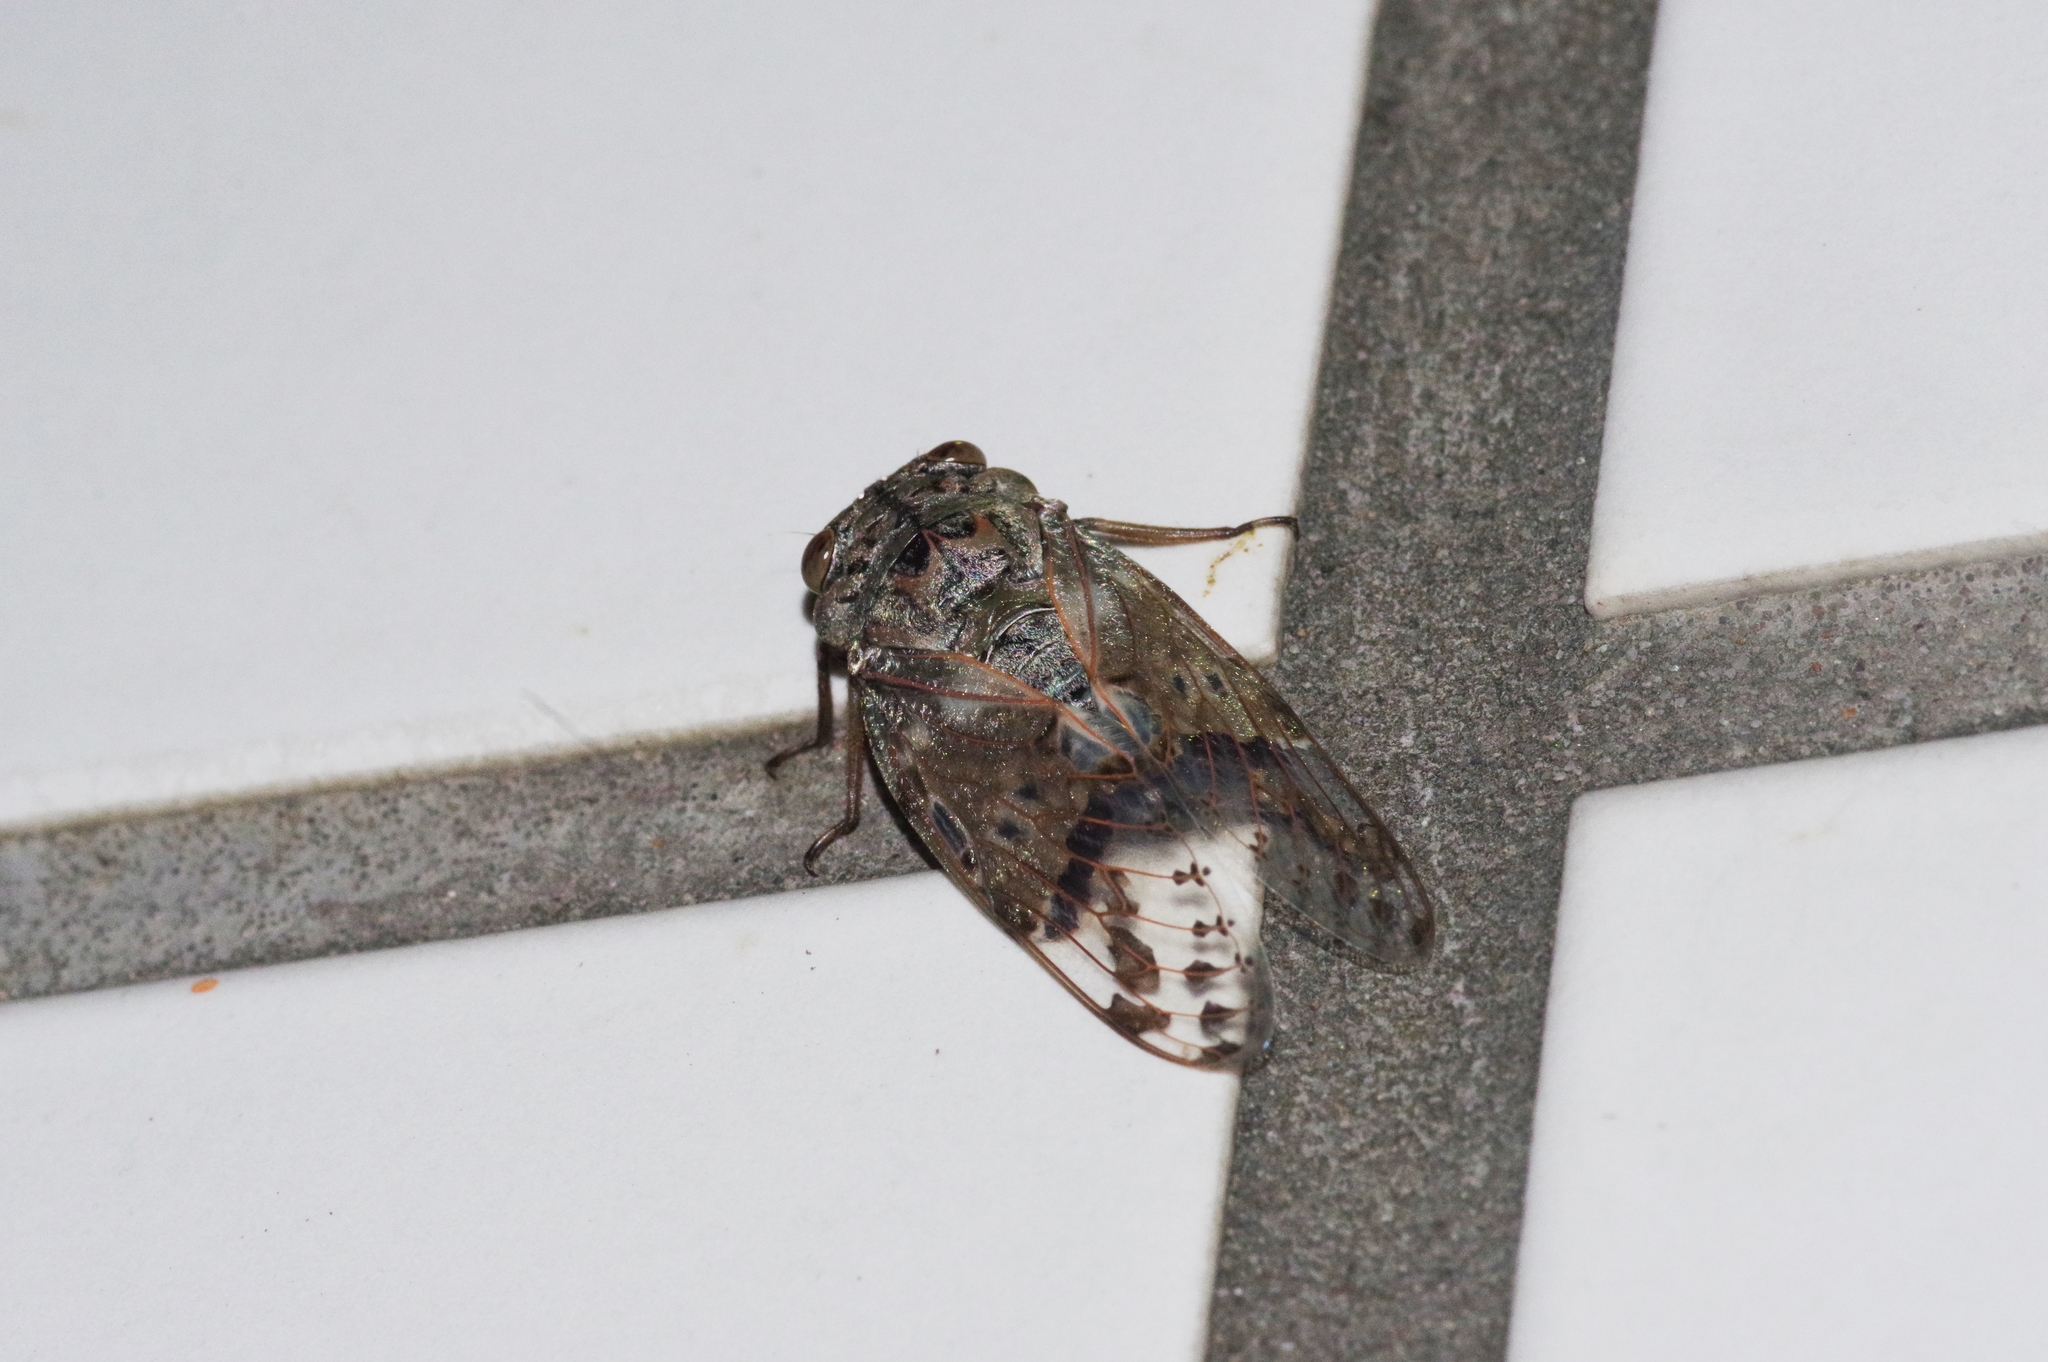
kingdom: Animalia
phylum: Arthropoda
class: Insecta
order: Hemiptera
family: Cicadidae
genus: Platypleura
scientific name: Platypleura kuroiwae
